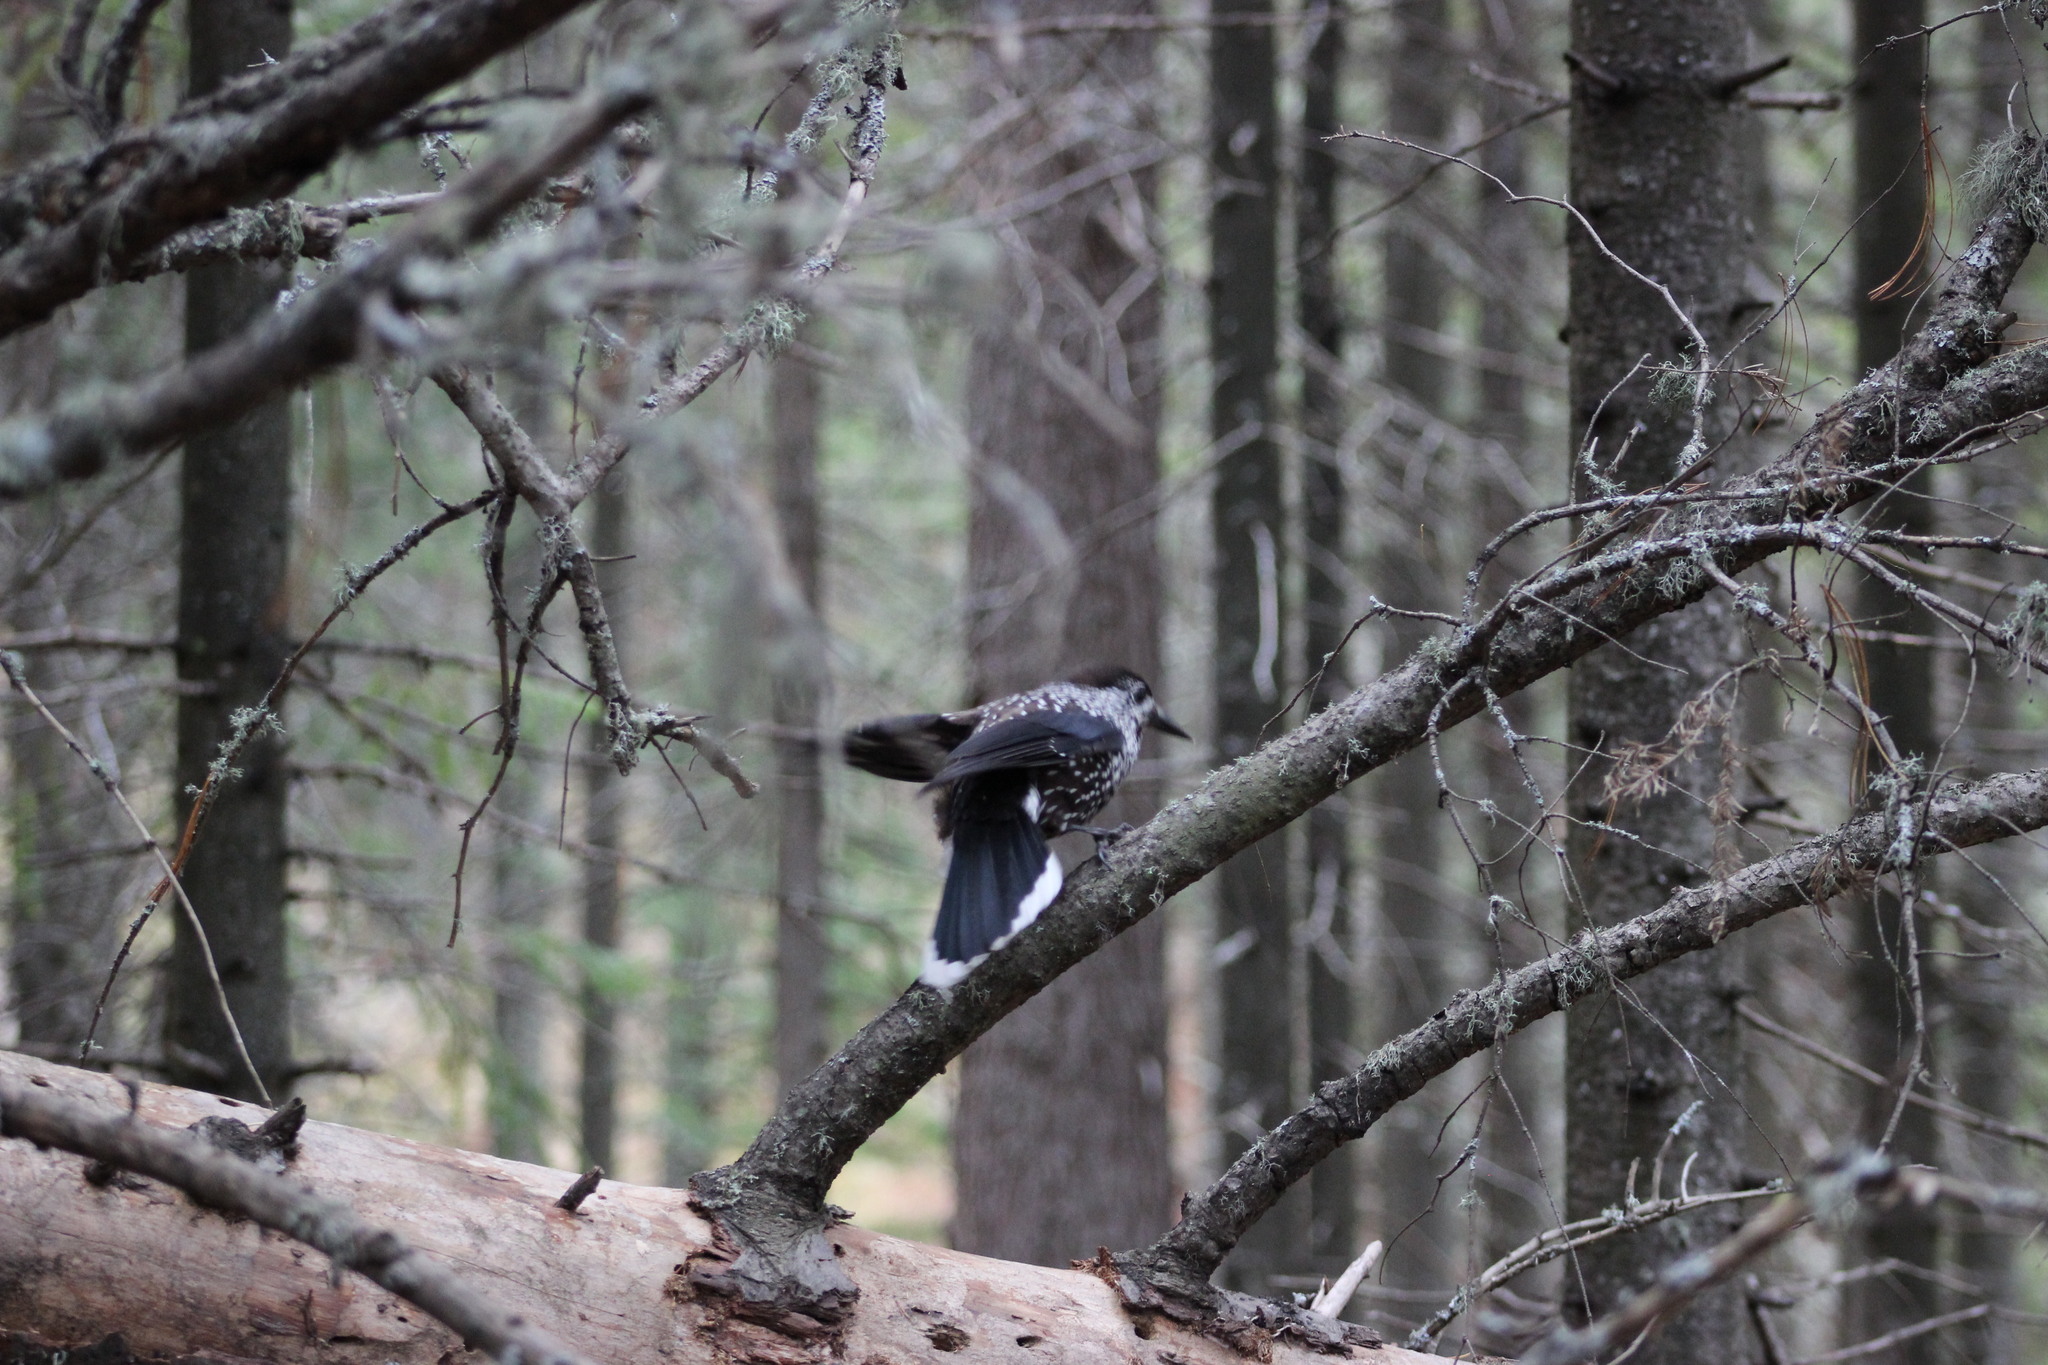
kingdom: Animalia
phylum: Chordata
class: Aves
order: Passeriformes
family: Corvidae
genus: Nucifraga
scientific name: Nucifraga caryocatactes
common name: Spotted nutcracker
